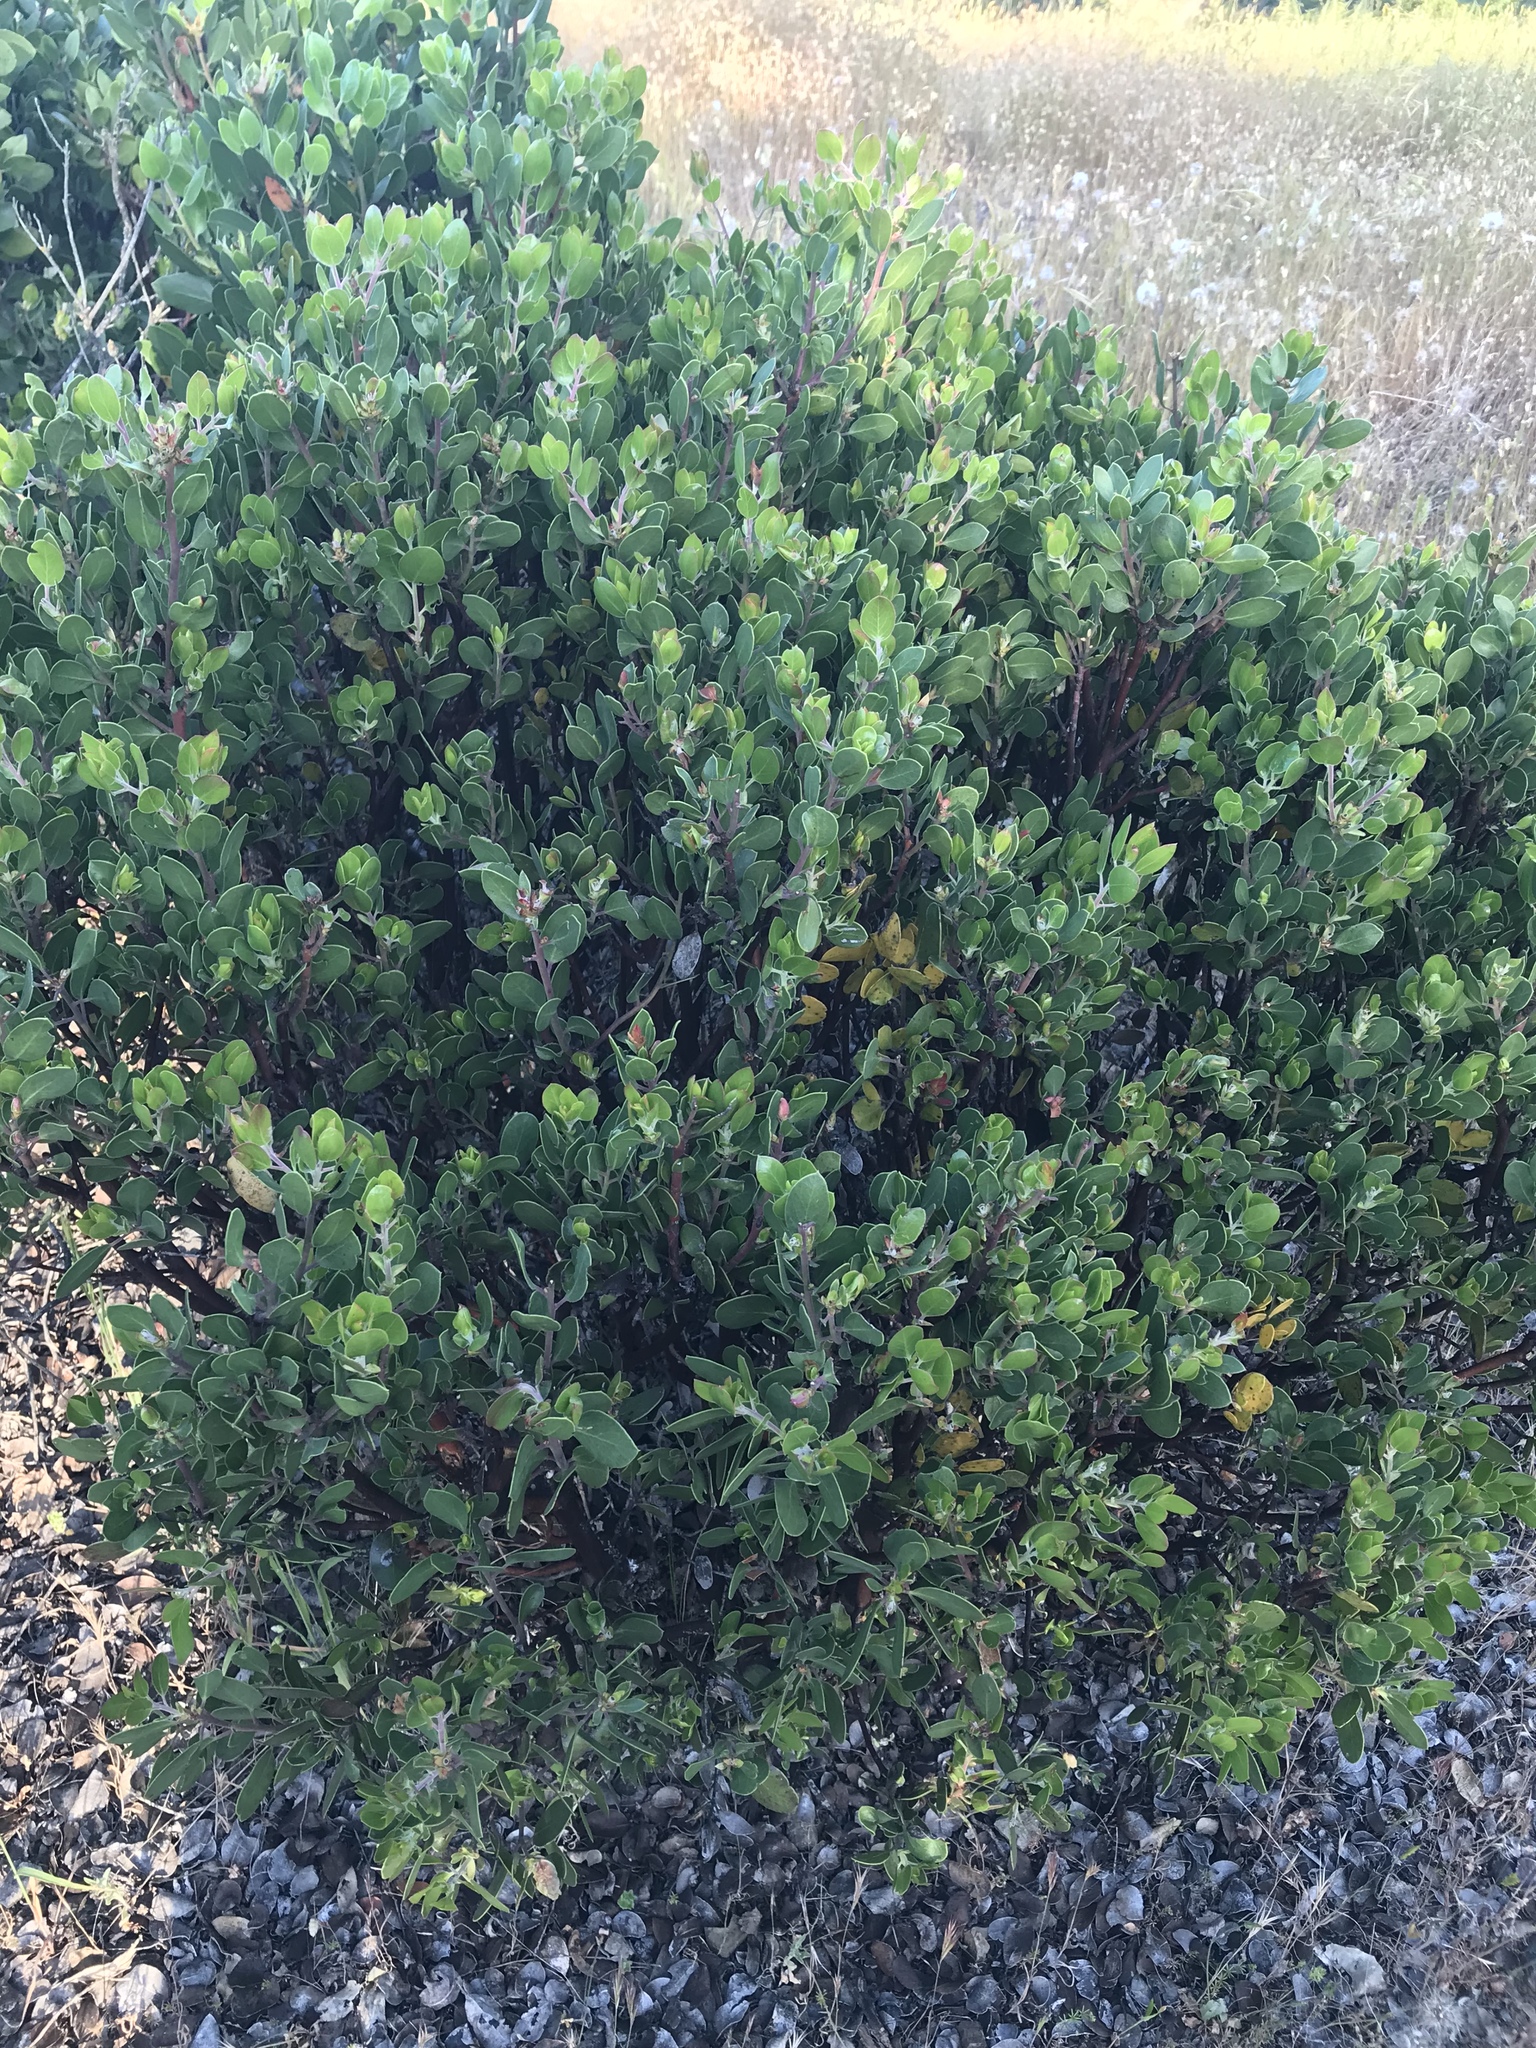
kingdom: Plantae
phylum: Tracheophyta
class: Magnoliopsida
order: Ericales
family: Ericaceae
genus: Arctostaphylos
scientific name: Arctostaphylos manzanita
